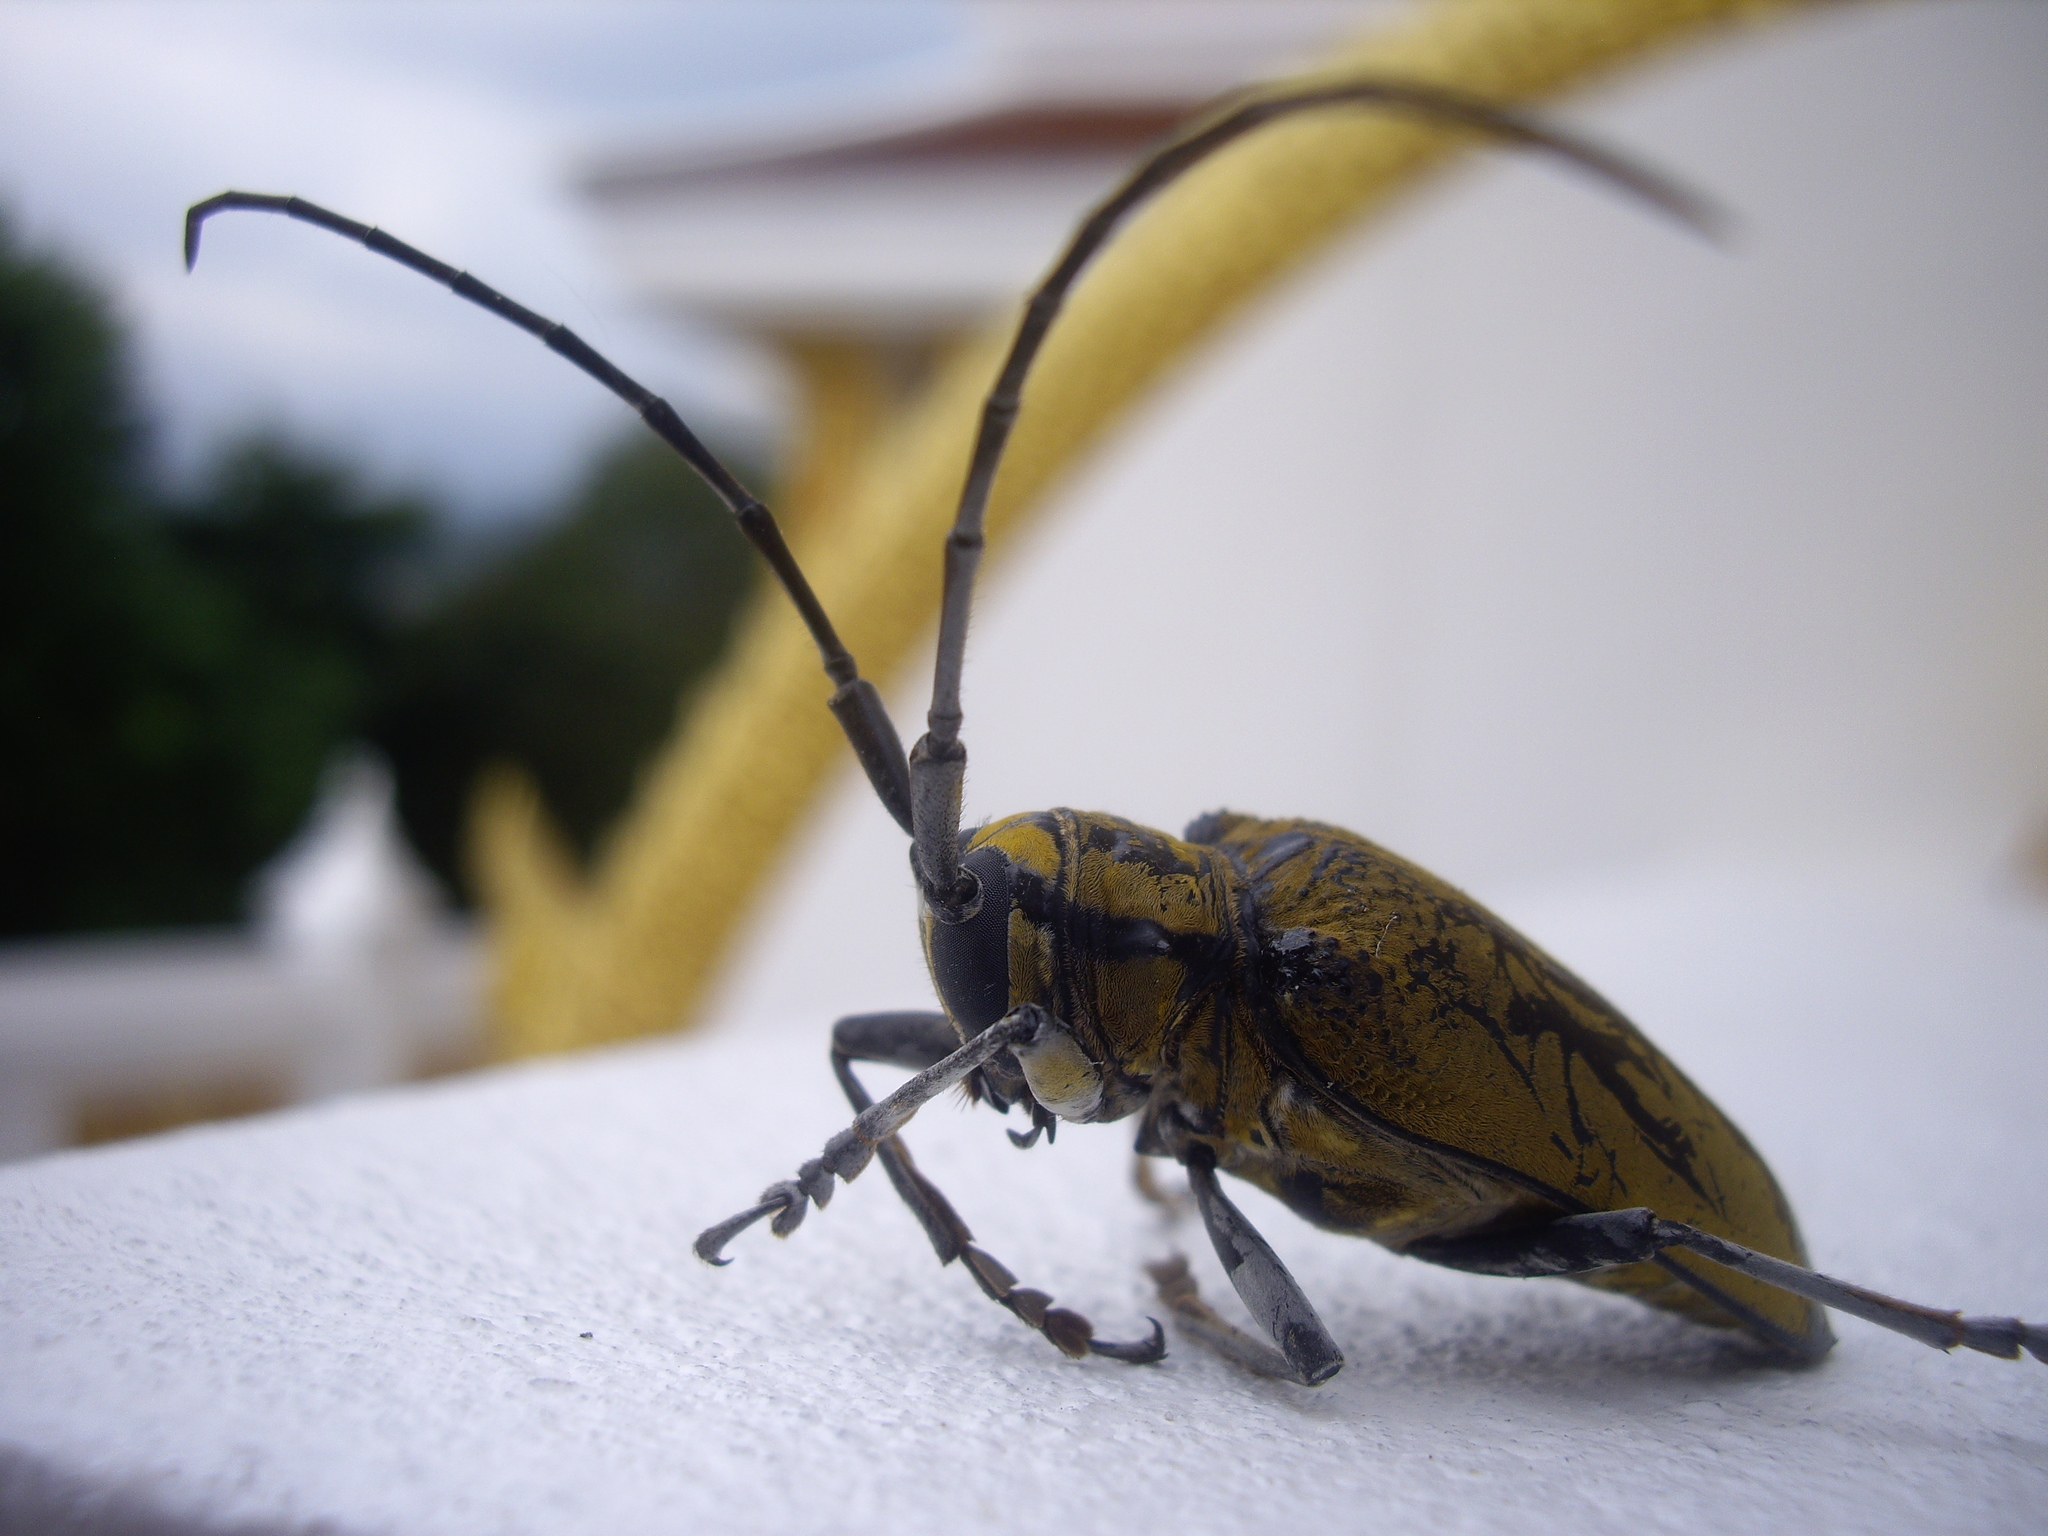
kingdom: Animalia
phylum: Arthropoda
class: Insecta
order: Coleoptera
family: Cerambycidae
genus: Cerosterna
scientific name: Cerosterna luteopubens
